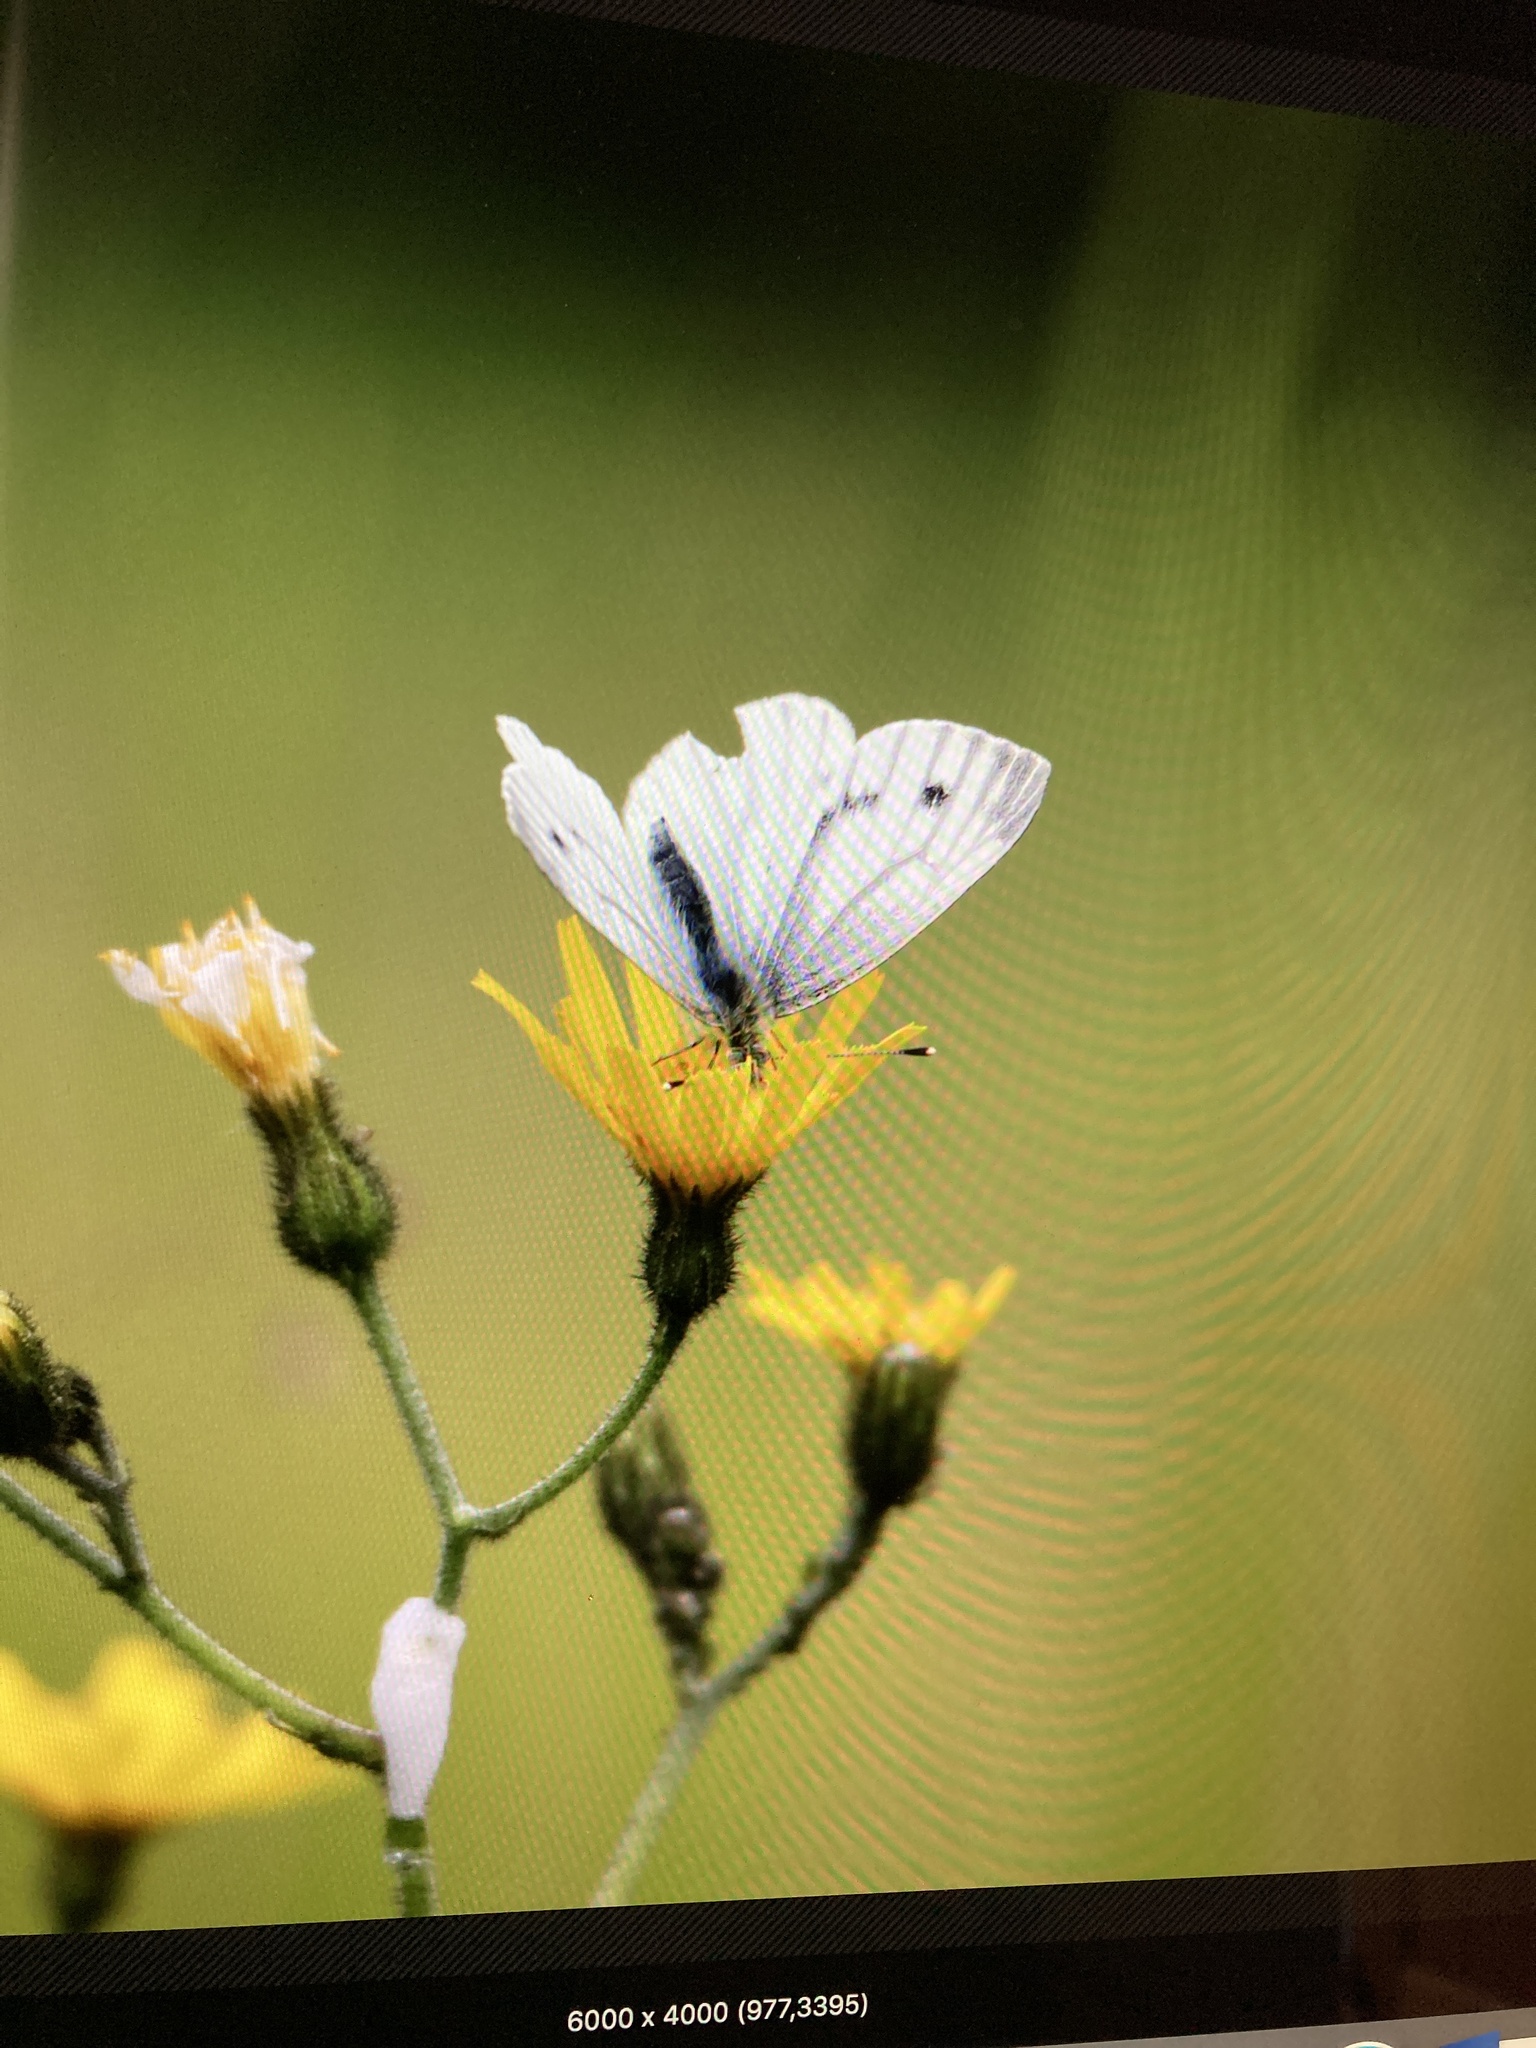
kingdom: Animalia
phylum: Arthropoda
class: Insecta
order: Lepidoptera
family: Pieridae
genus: Pieris
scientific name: Pieris napi
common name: Green-veined white
